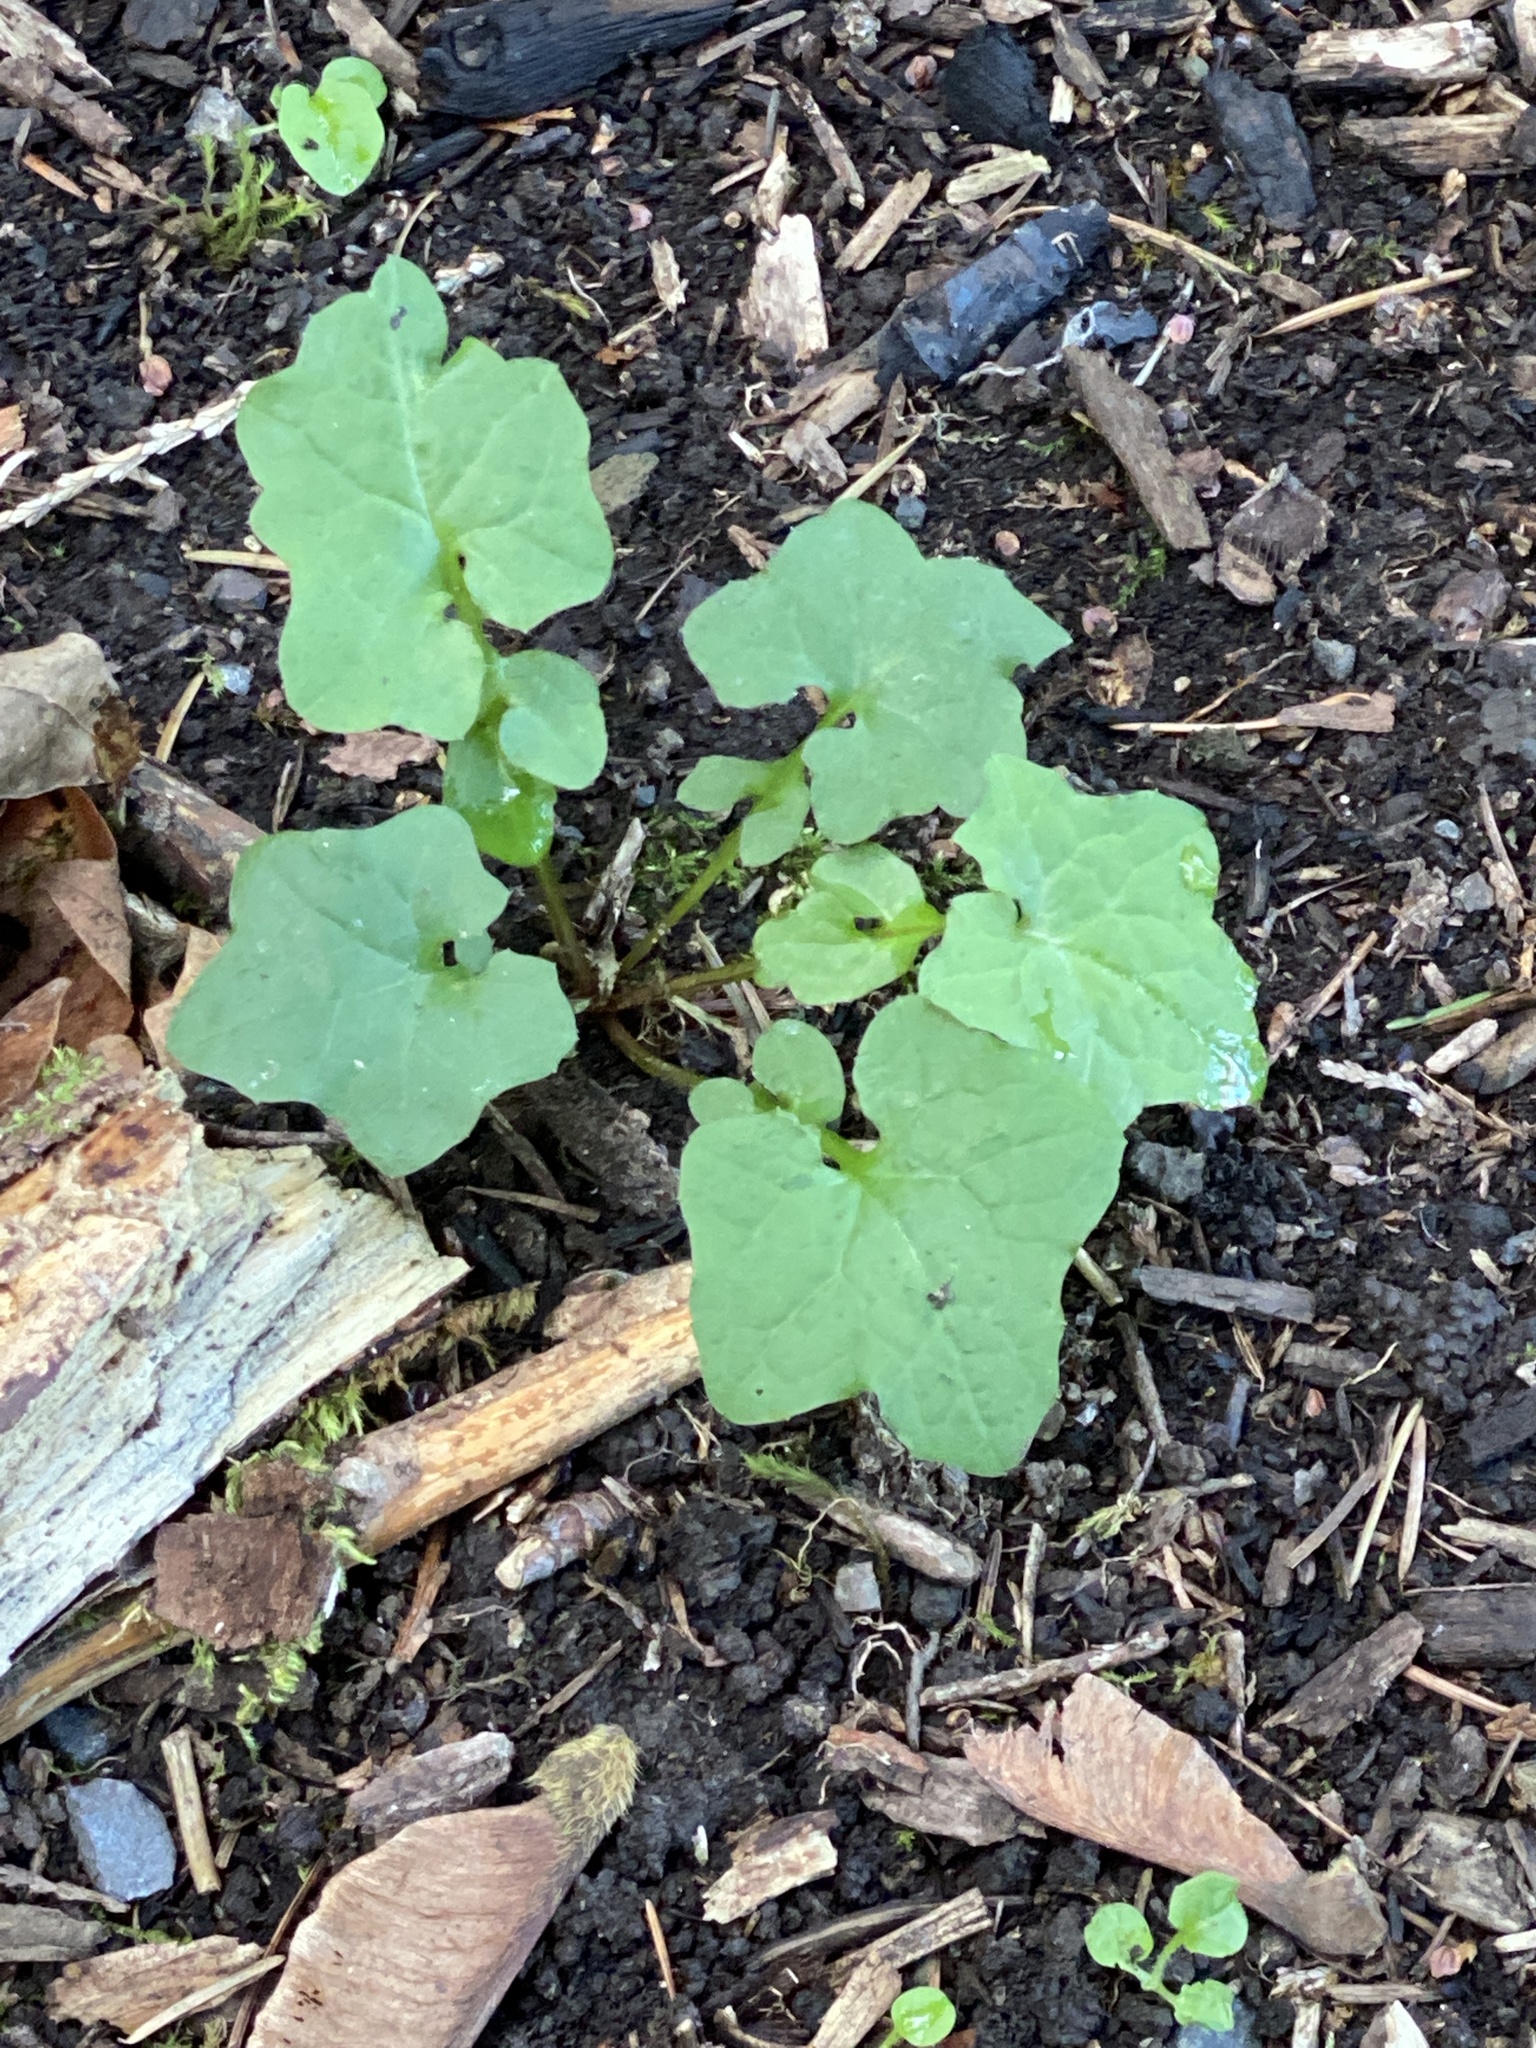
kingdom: Plantae
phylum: Tracheophyta
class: Magnoliopsida
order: Asterales
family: Asteraceae
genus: Mycelis
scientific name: Mycelis muralis
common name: Wall lettuce
